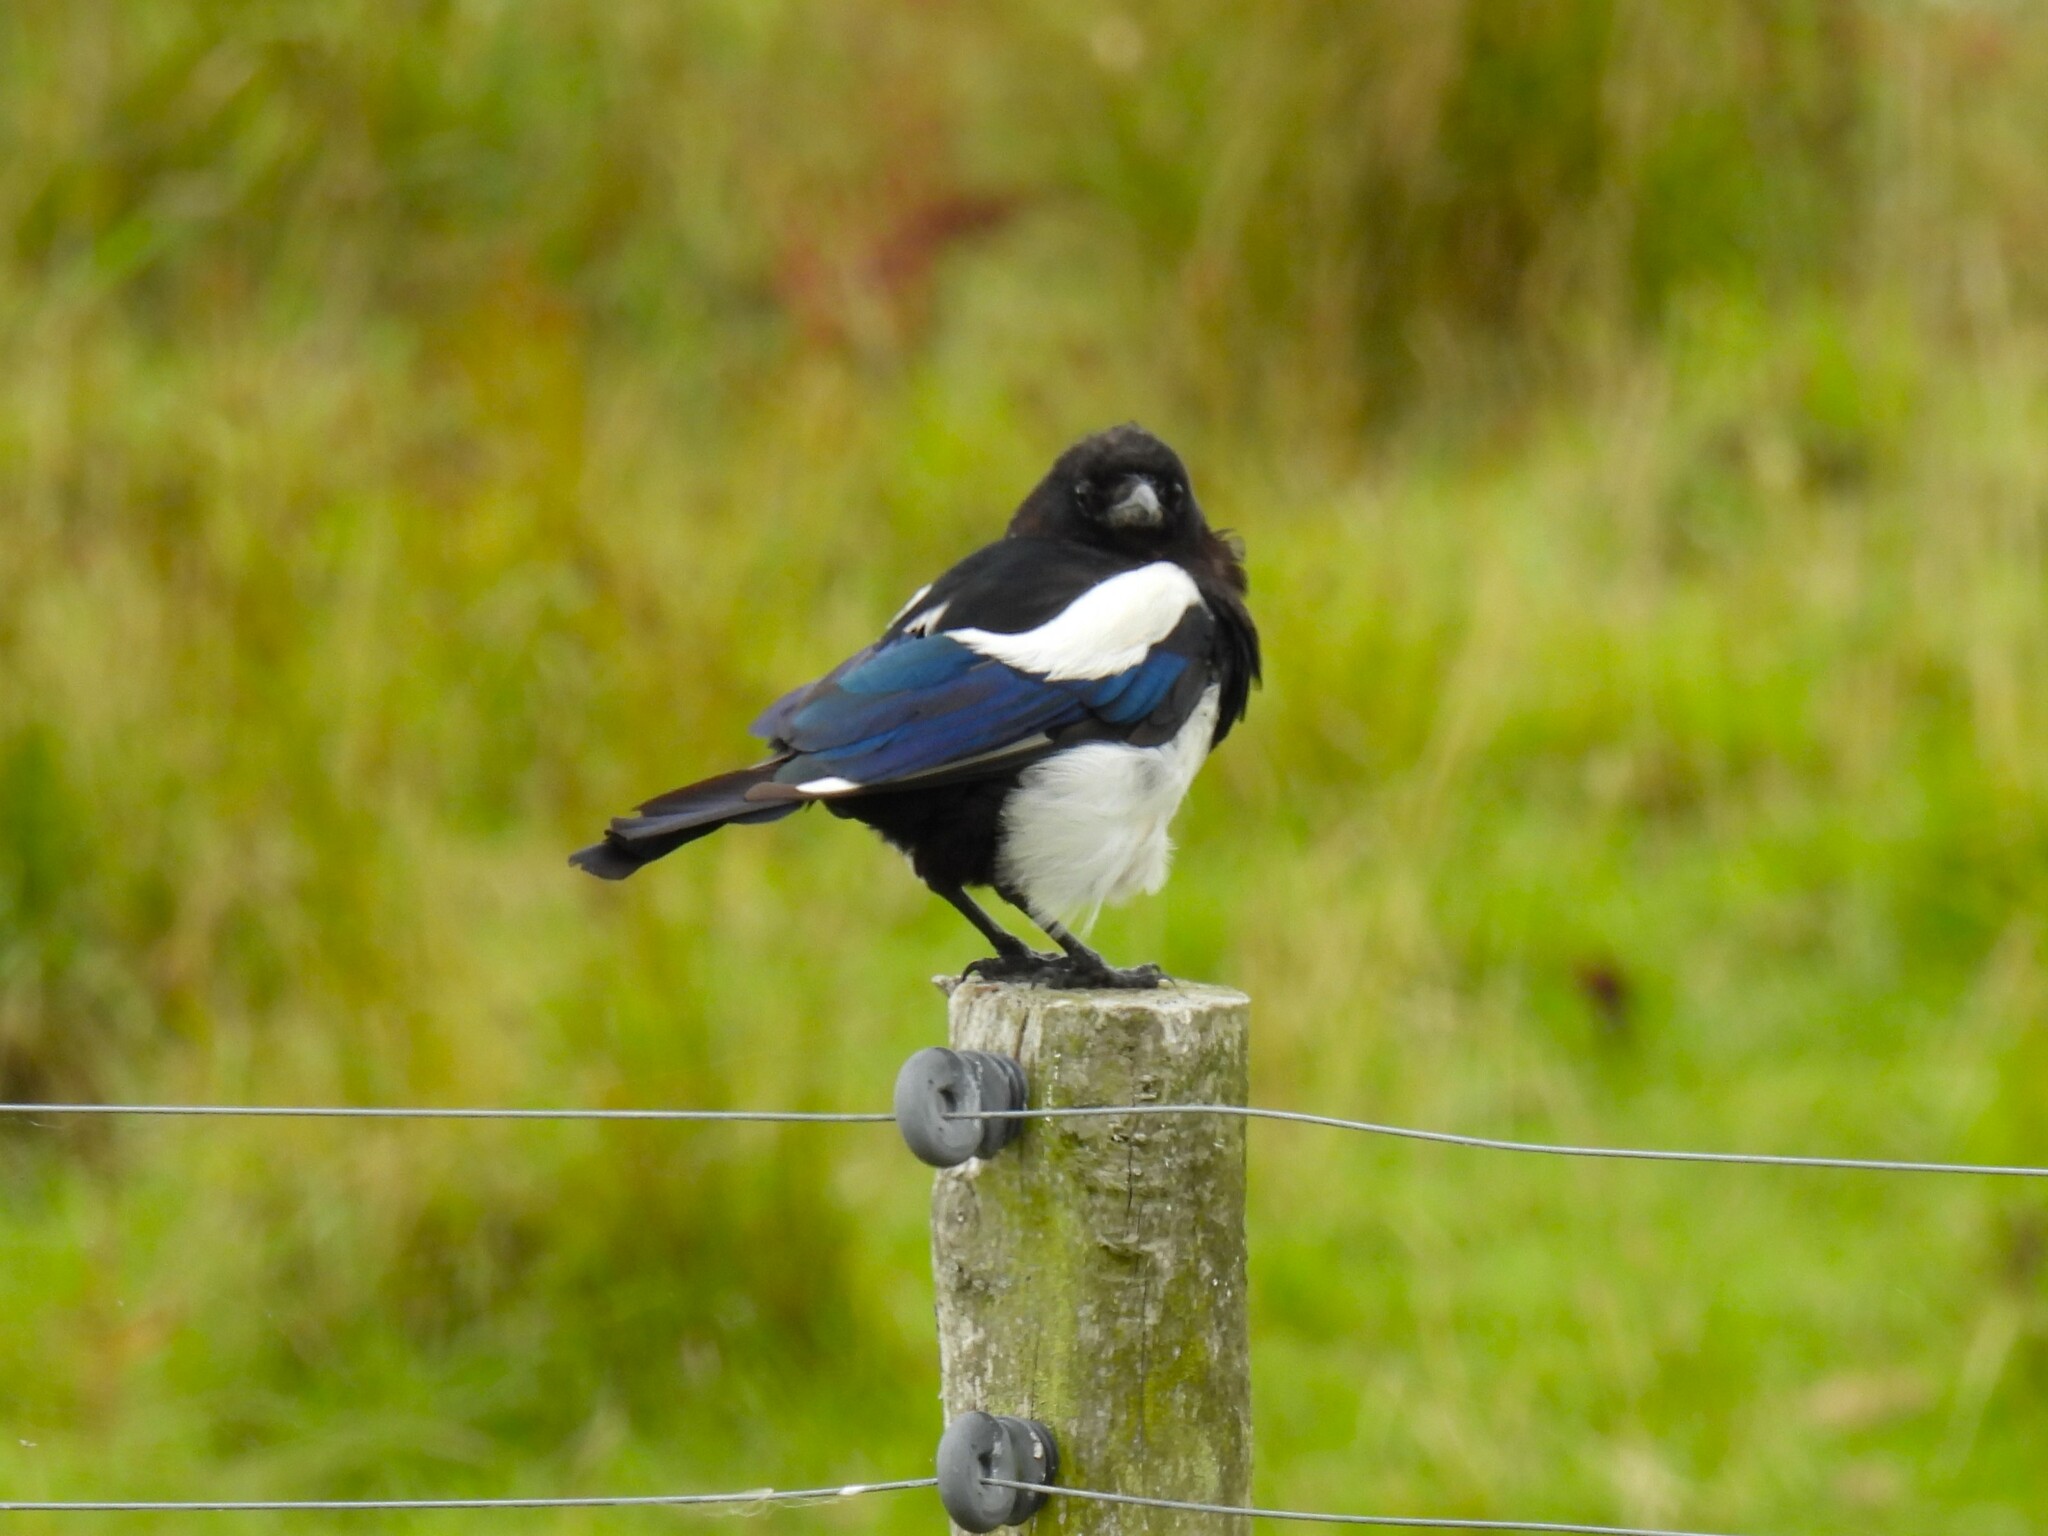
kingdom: Animalia
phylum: Chordata
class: Aves
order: Passeriformes
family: Corvidae
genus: Pica
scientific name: Pica pica
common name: Eurasian magpie
